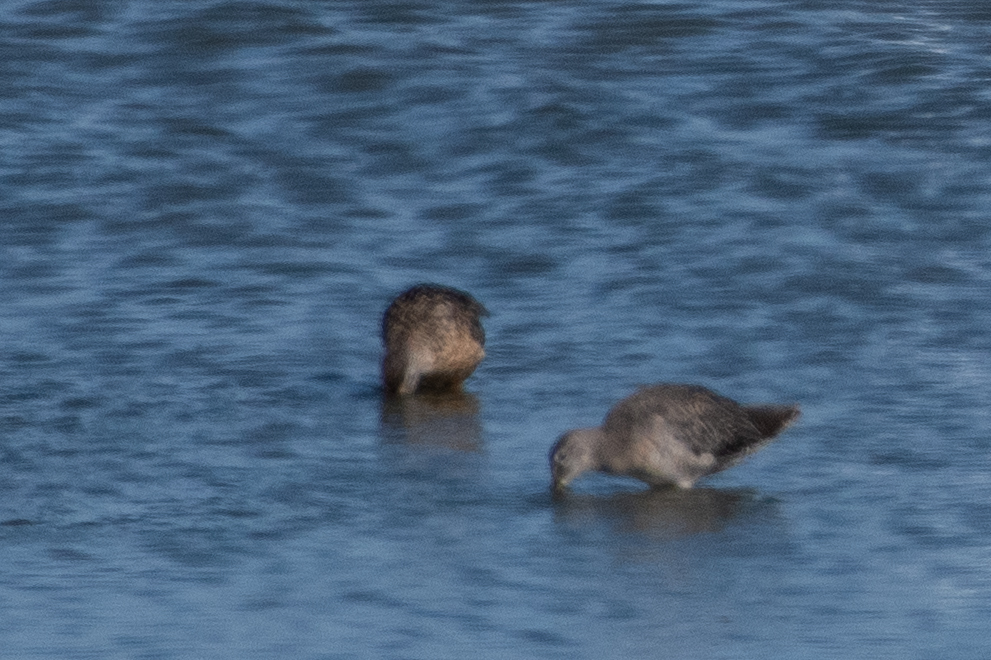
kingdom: Animalia
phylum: Chordata
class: Aves
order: Charadriiformes
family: Scolopacidae
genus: Limnodromus
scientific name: Limnodromus scolopaceus
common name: Long-billed dowitcher
